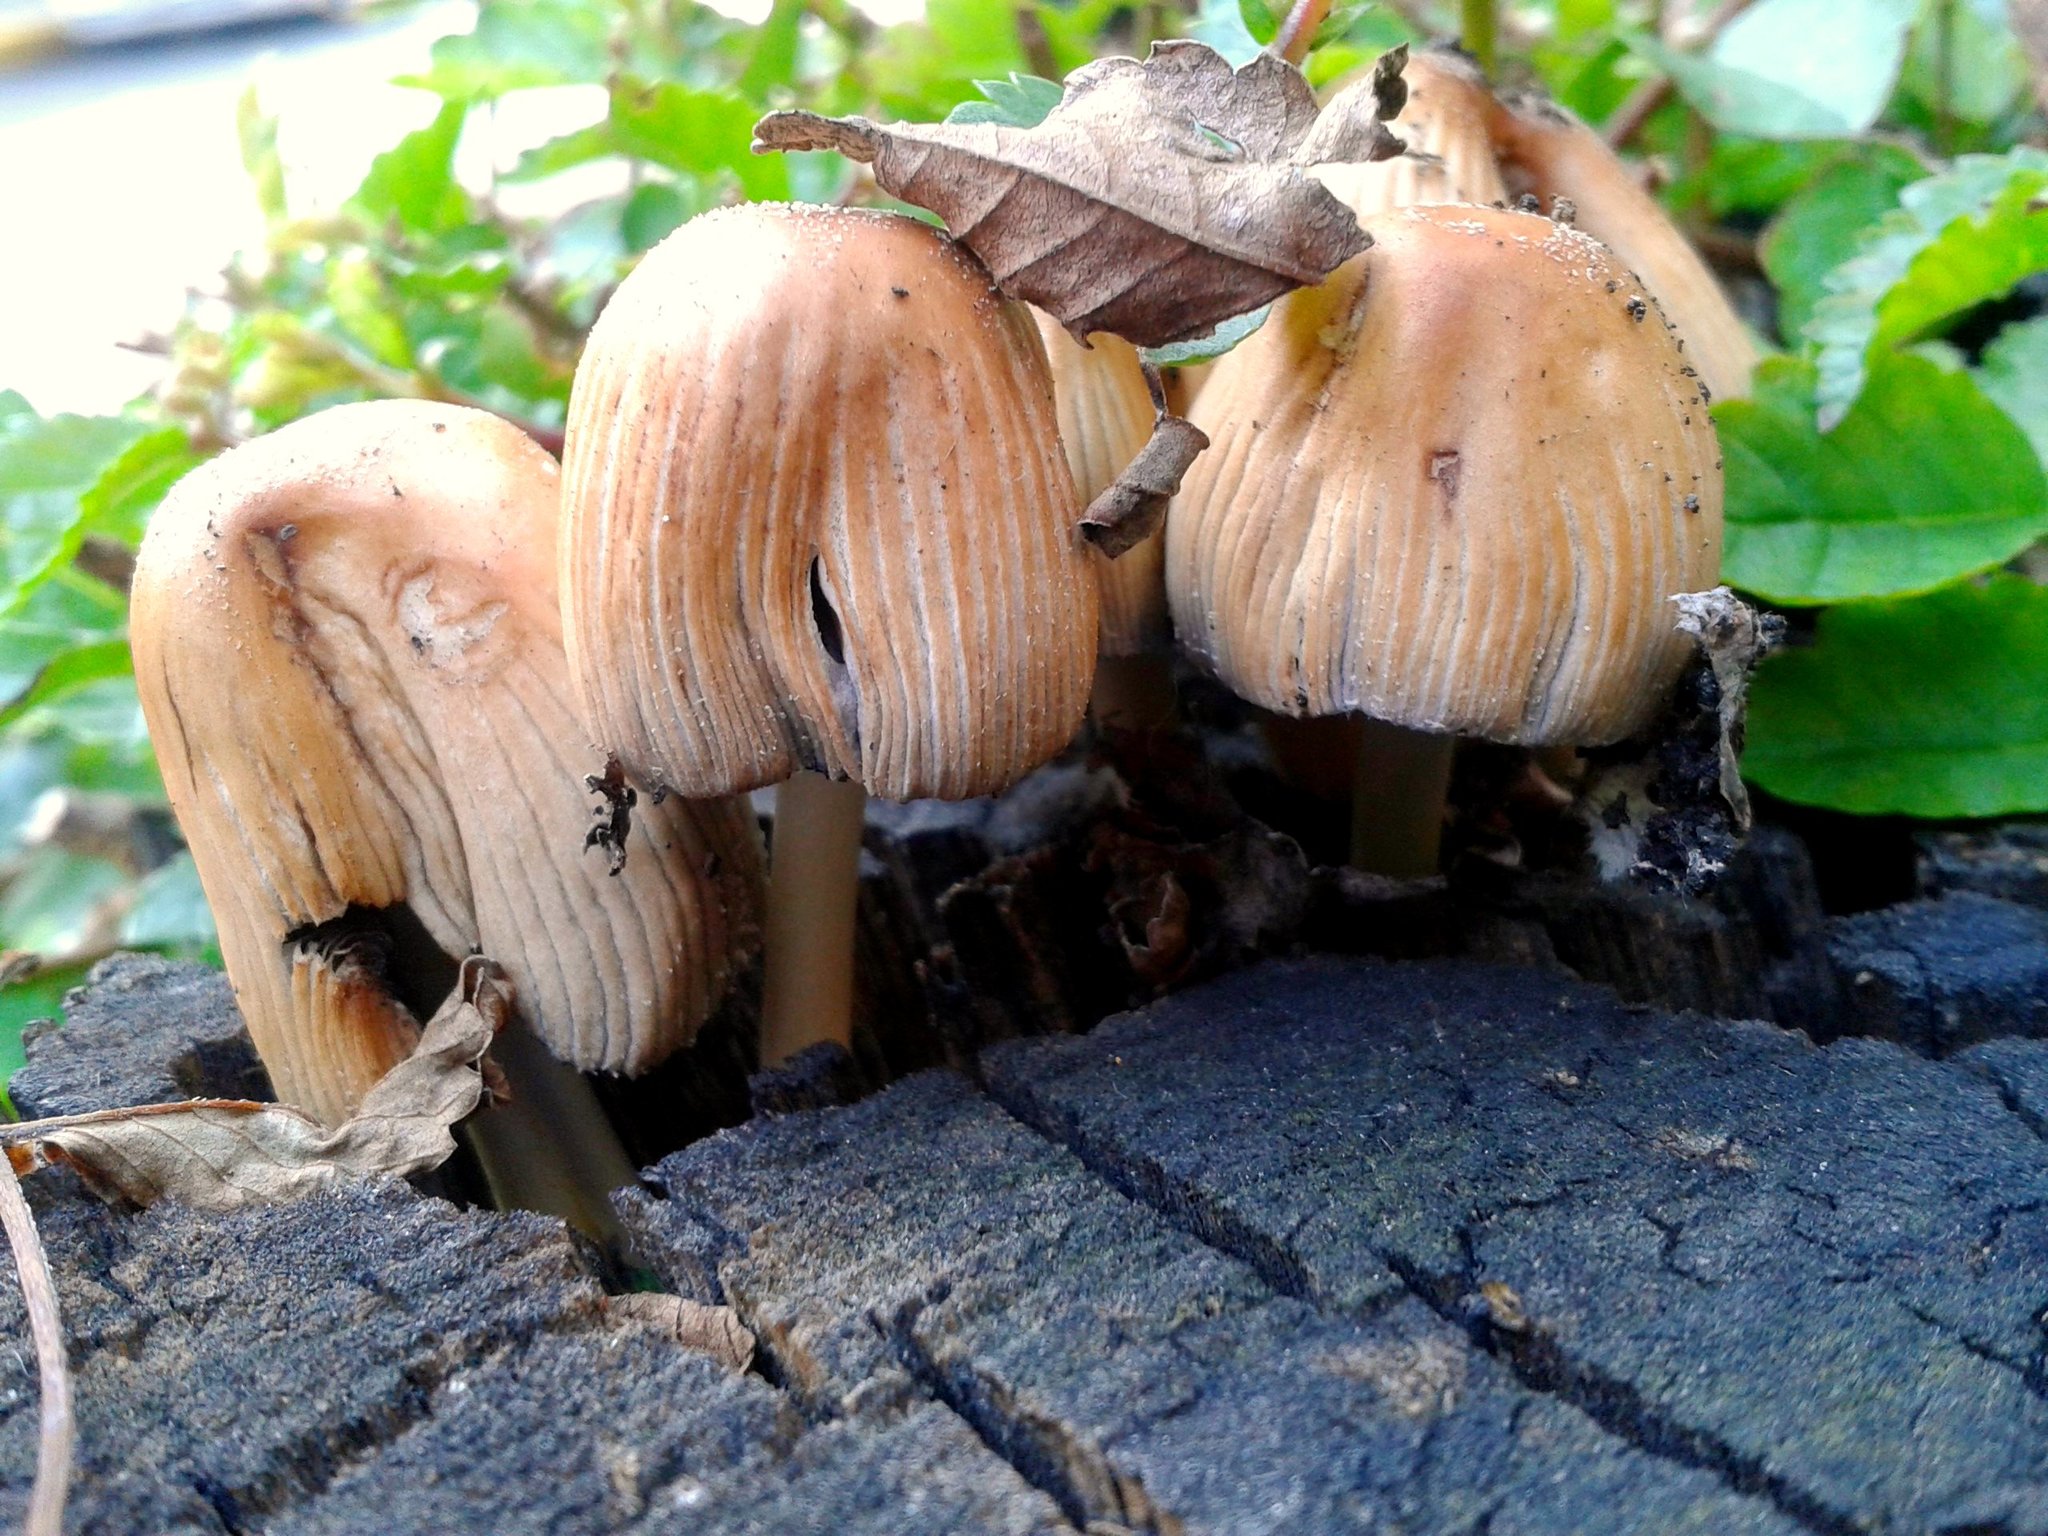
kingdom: Fungi
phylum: Basidiomycota
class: Agaricomycetes
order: Agaricales
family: Psathyrellaceae
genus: Coprinellus
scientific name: Coprinellus micaceus
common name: Glistening ink-cap
